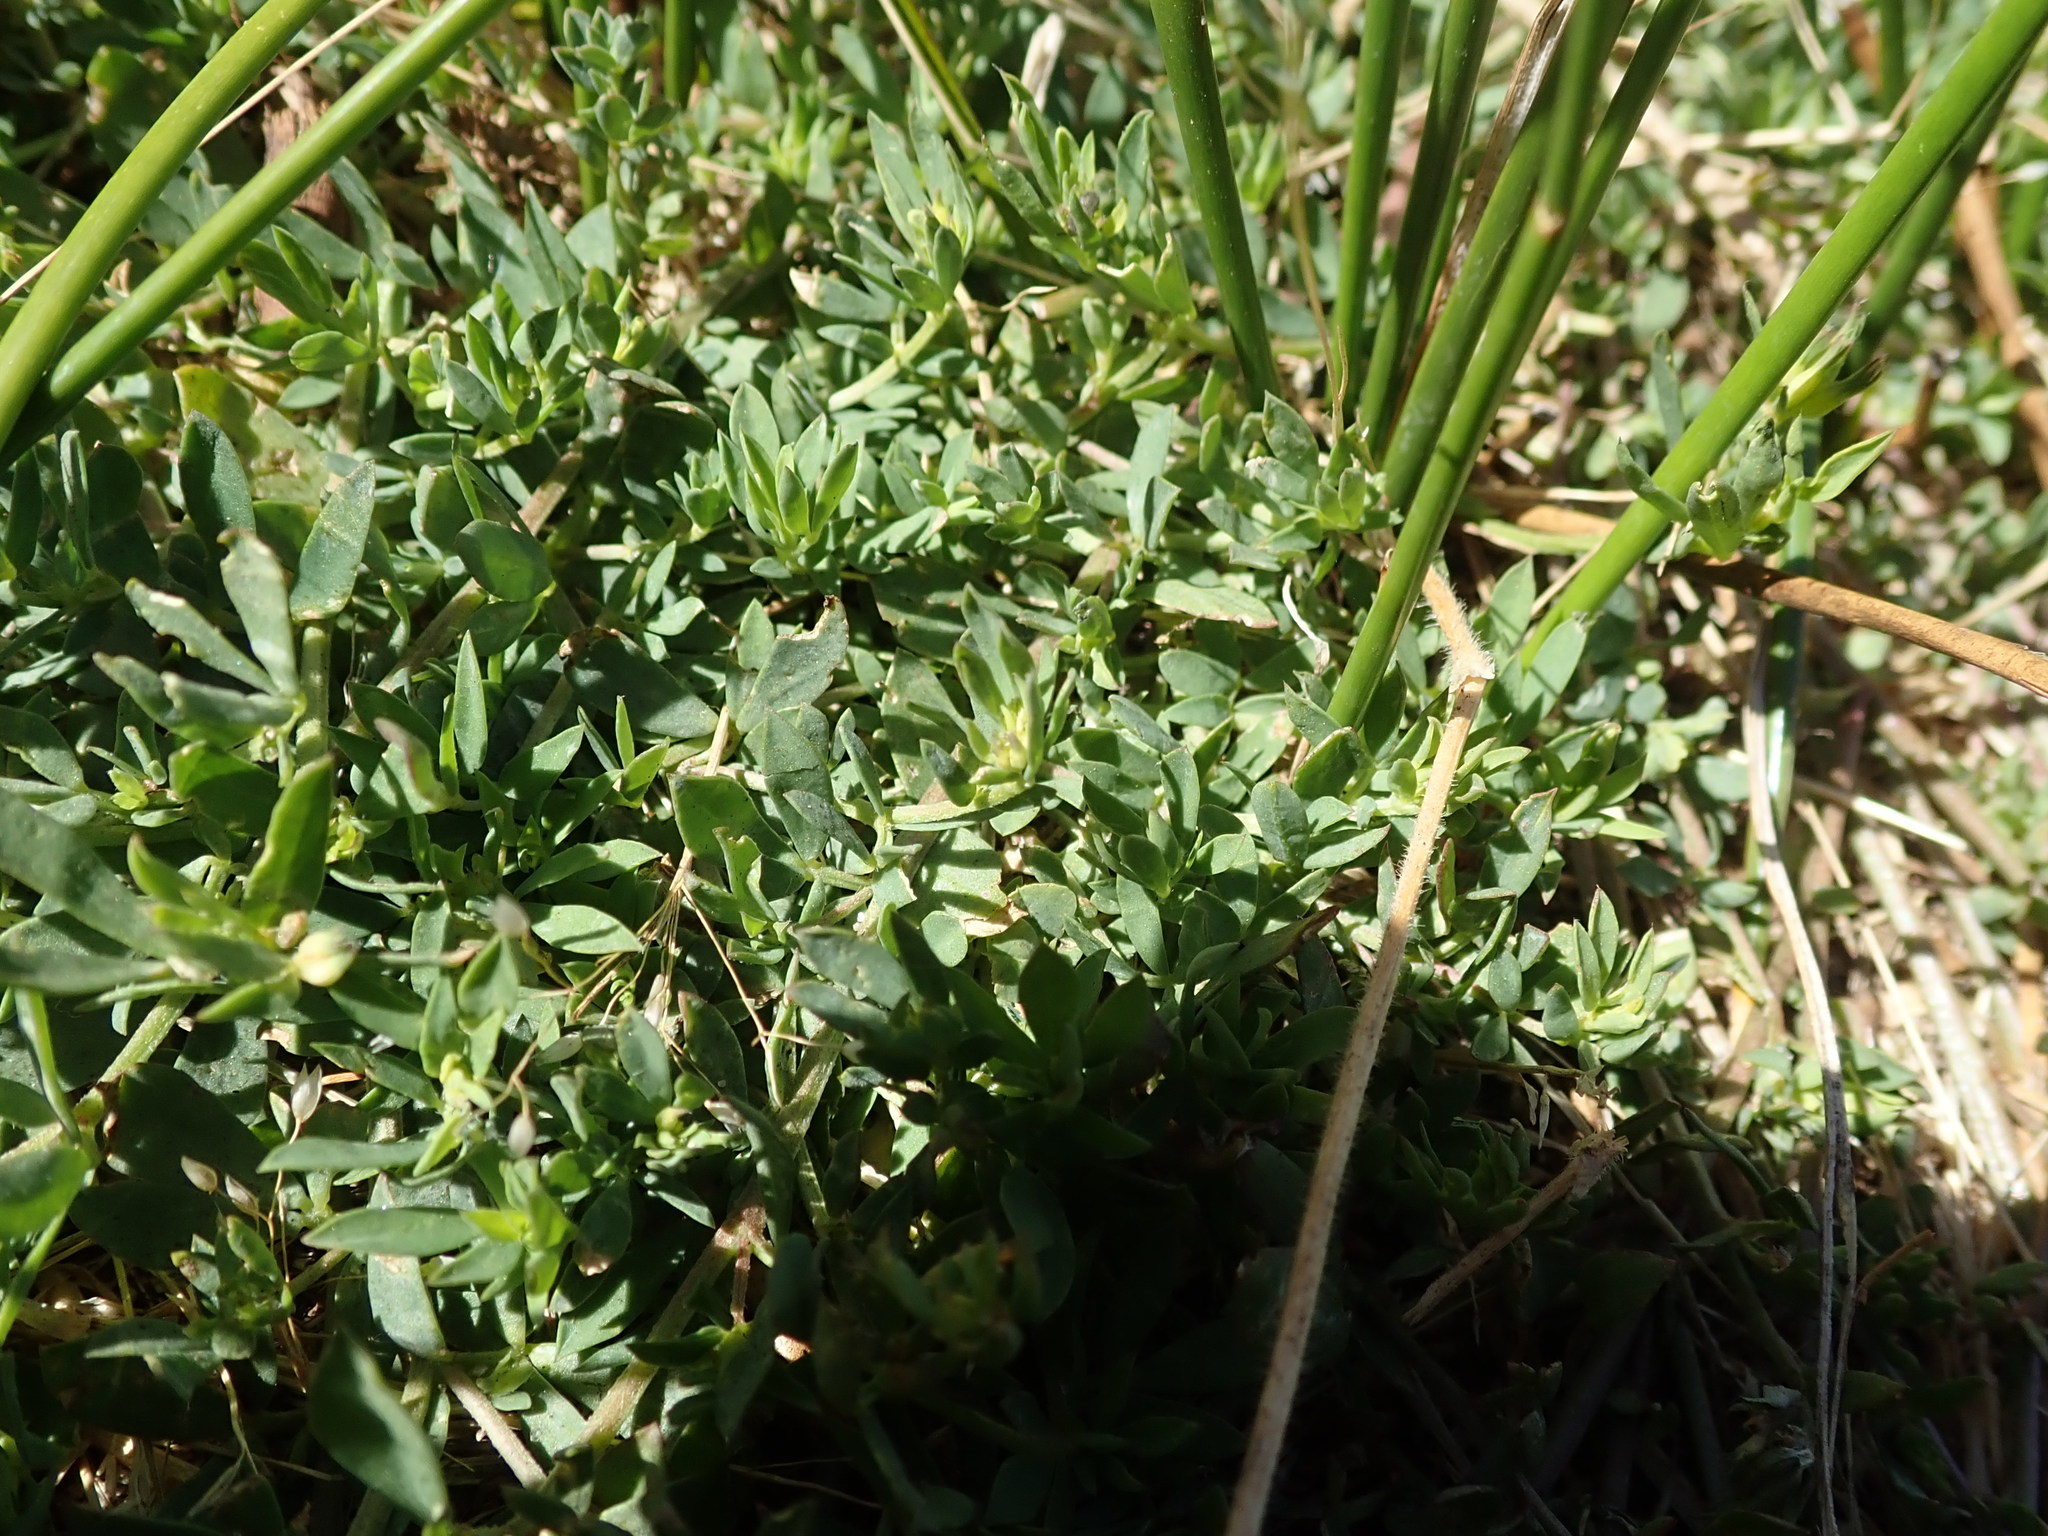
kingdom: Plantae
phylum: Tracheophyta
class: Magnoliopsida
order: Fabales
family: Fabaceae
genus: Lotus
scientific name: Lotus corniculatus
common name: Common bird's-foot-trefoil
